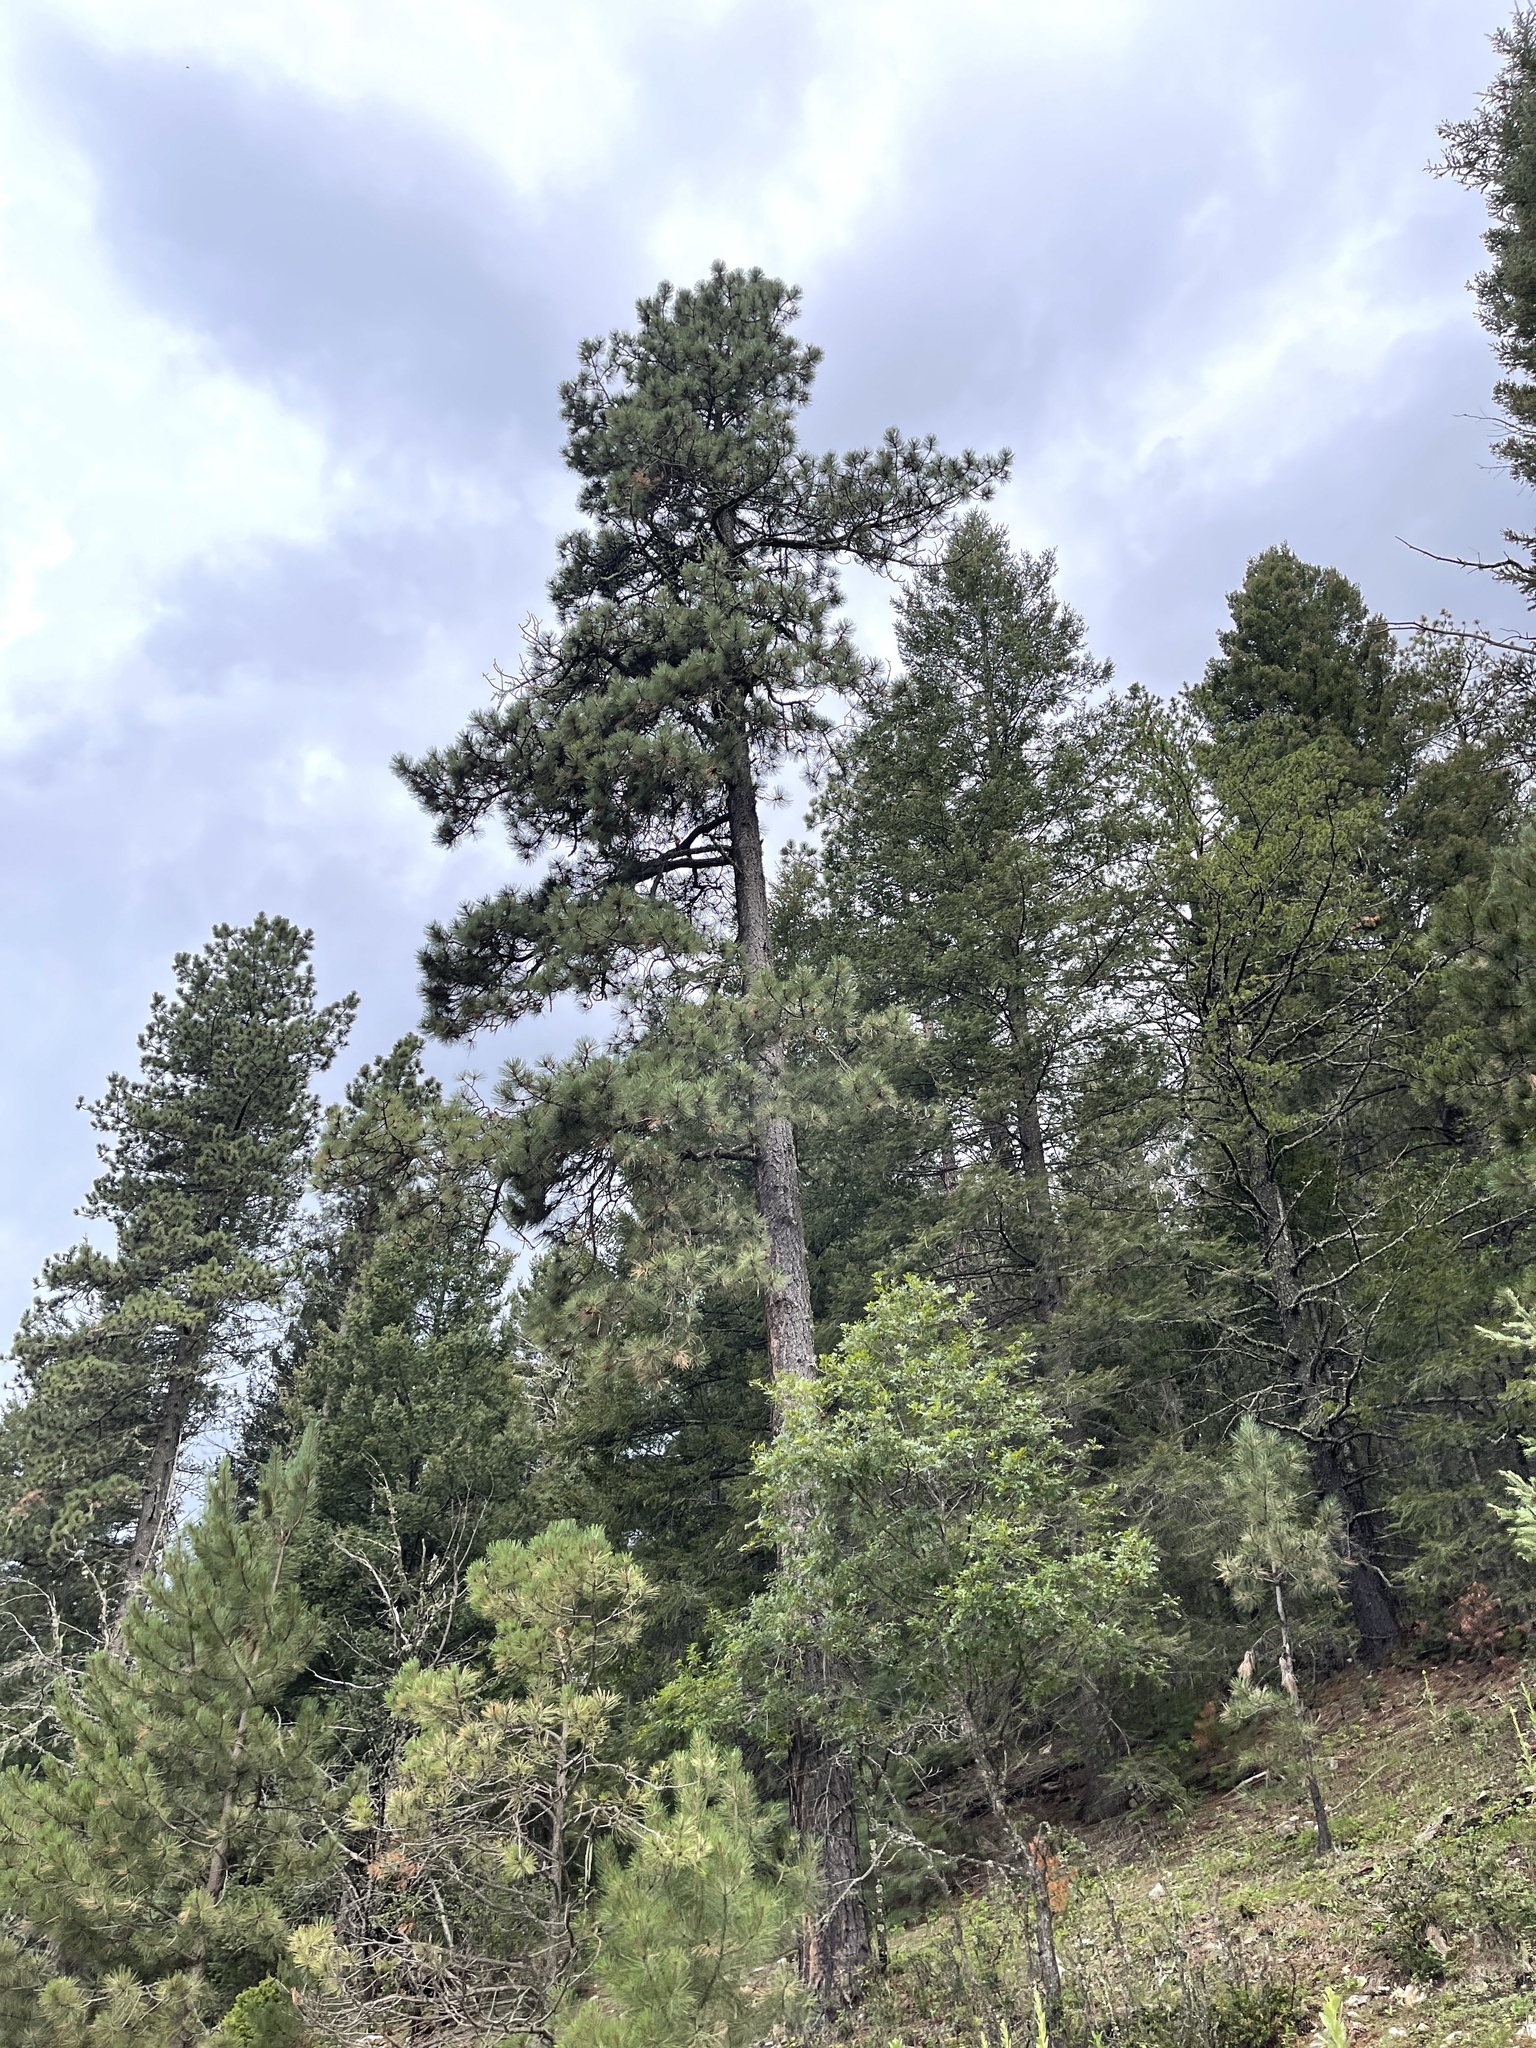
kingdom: Plantae
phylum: Tracheophyta
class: Pinopsida
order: Pinales
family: Pinaceae
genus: Pinus
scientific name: Pinus ponderosa
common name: Western yellow-pine
